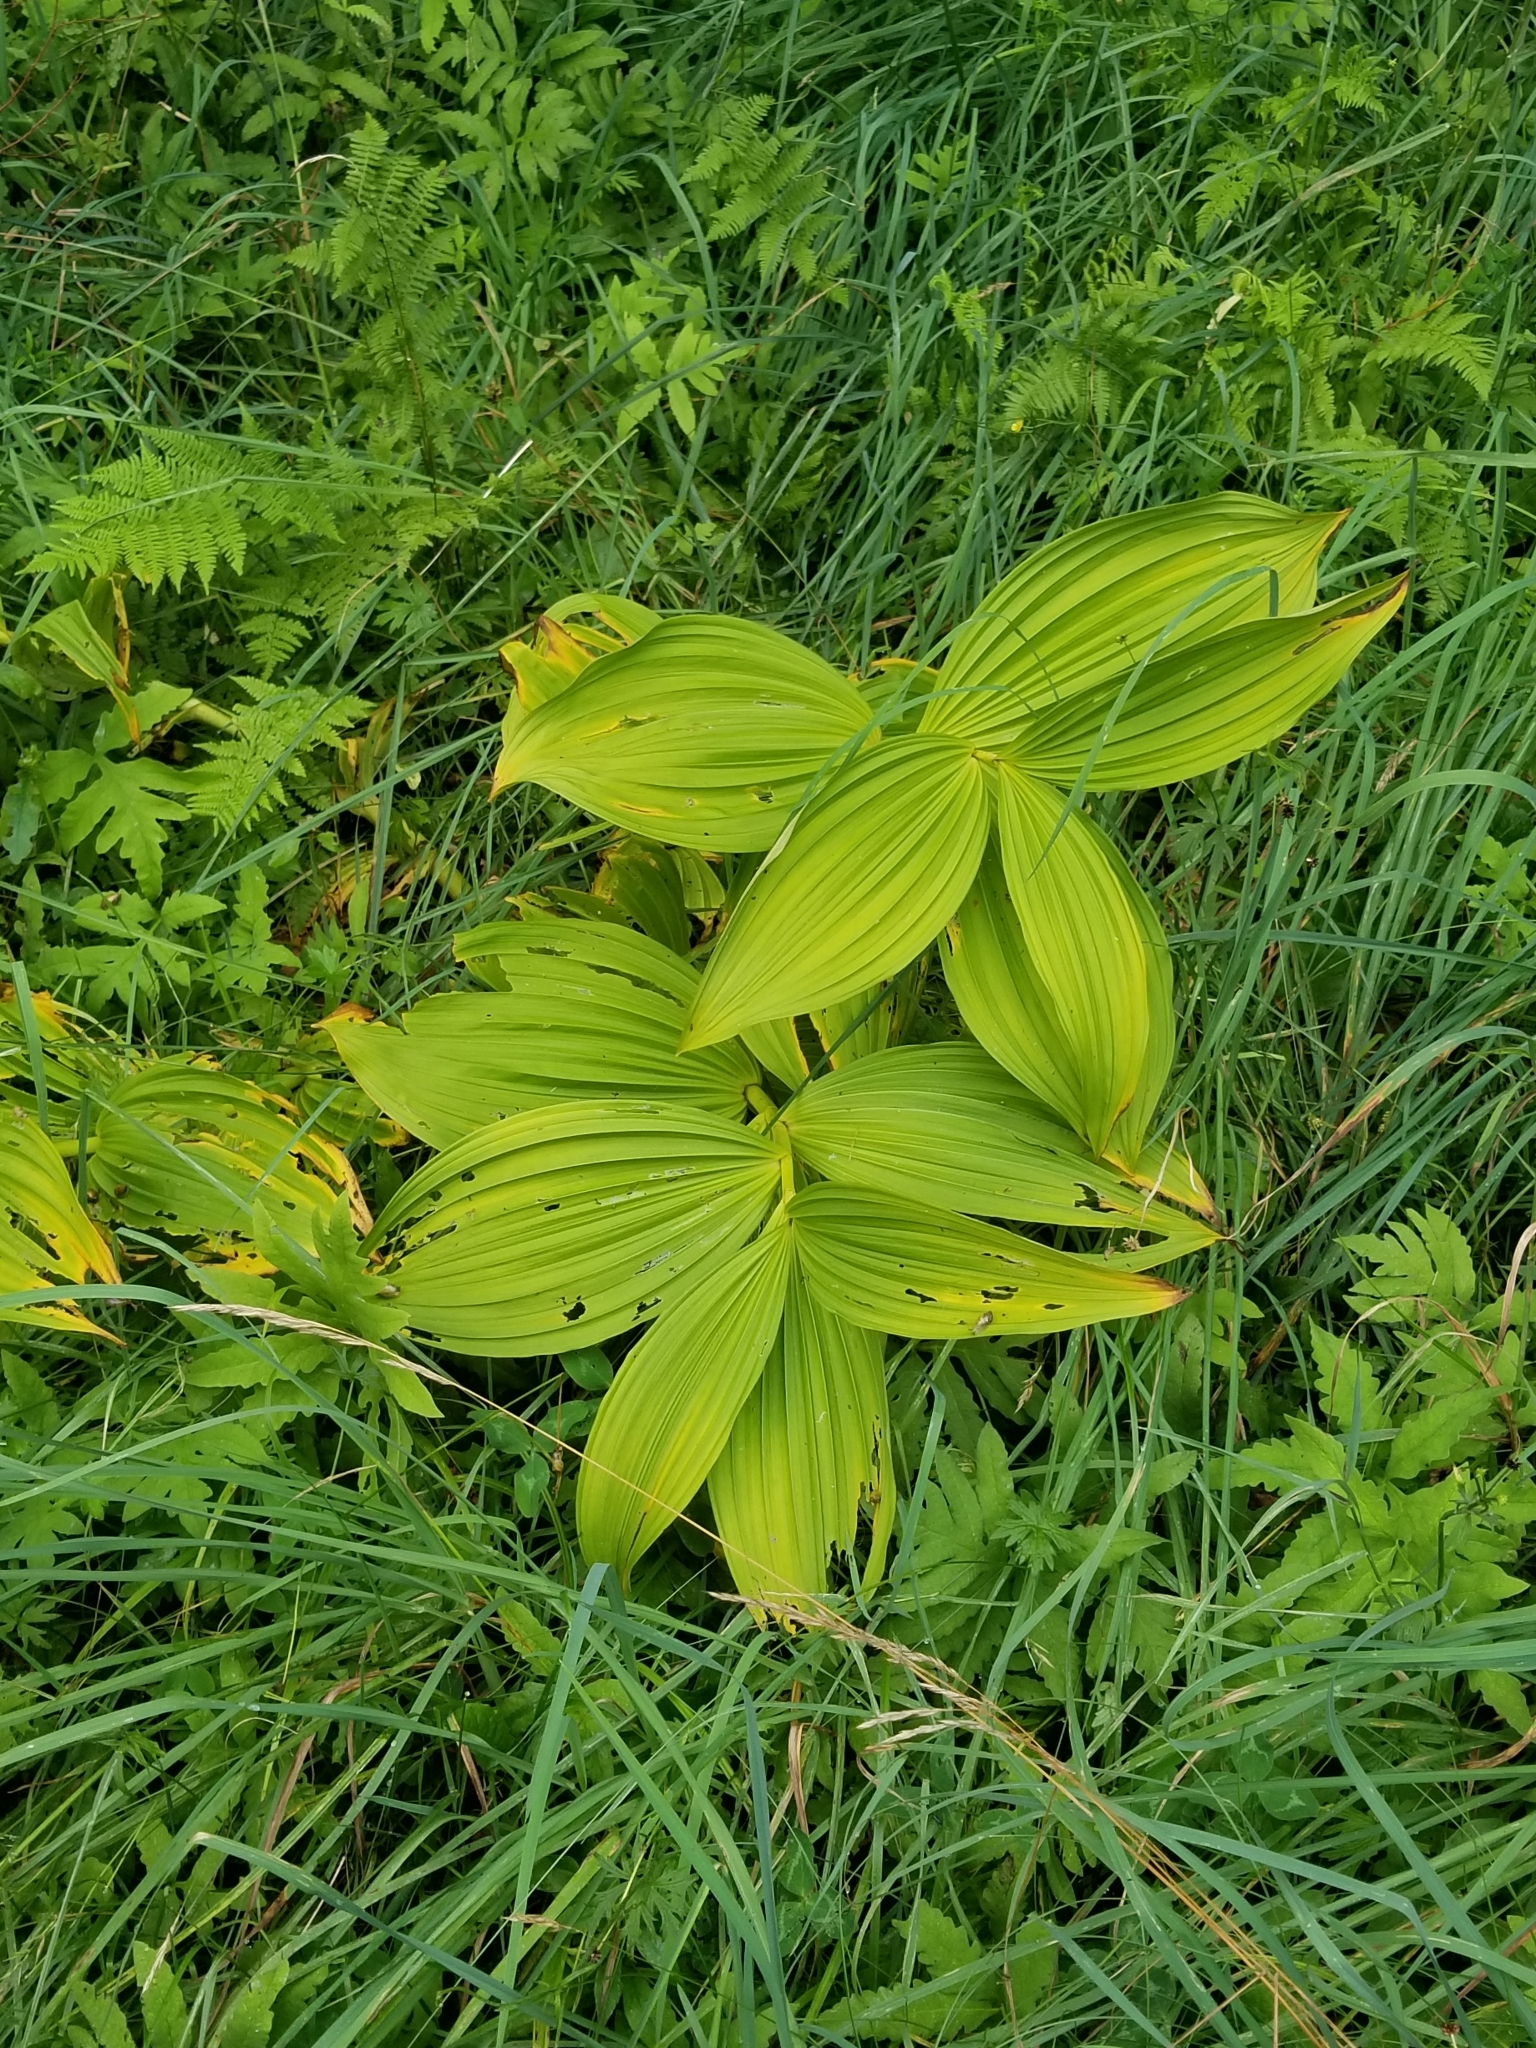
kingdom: Plantae
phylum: Tracheophyta
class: Liliopsida
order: Liliales
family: Melanthiaceae
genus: Veratrum
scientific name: Veratrum viride
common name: American false hellebore
